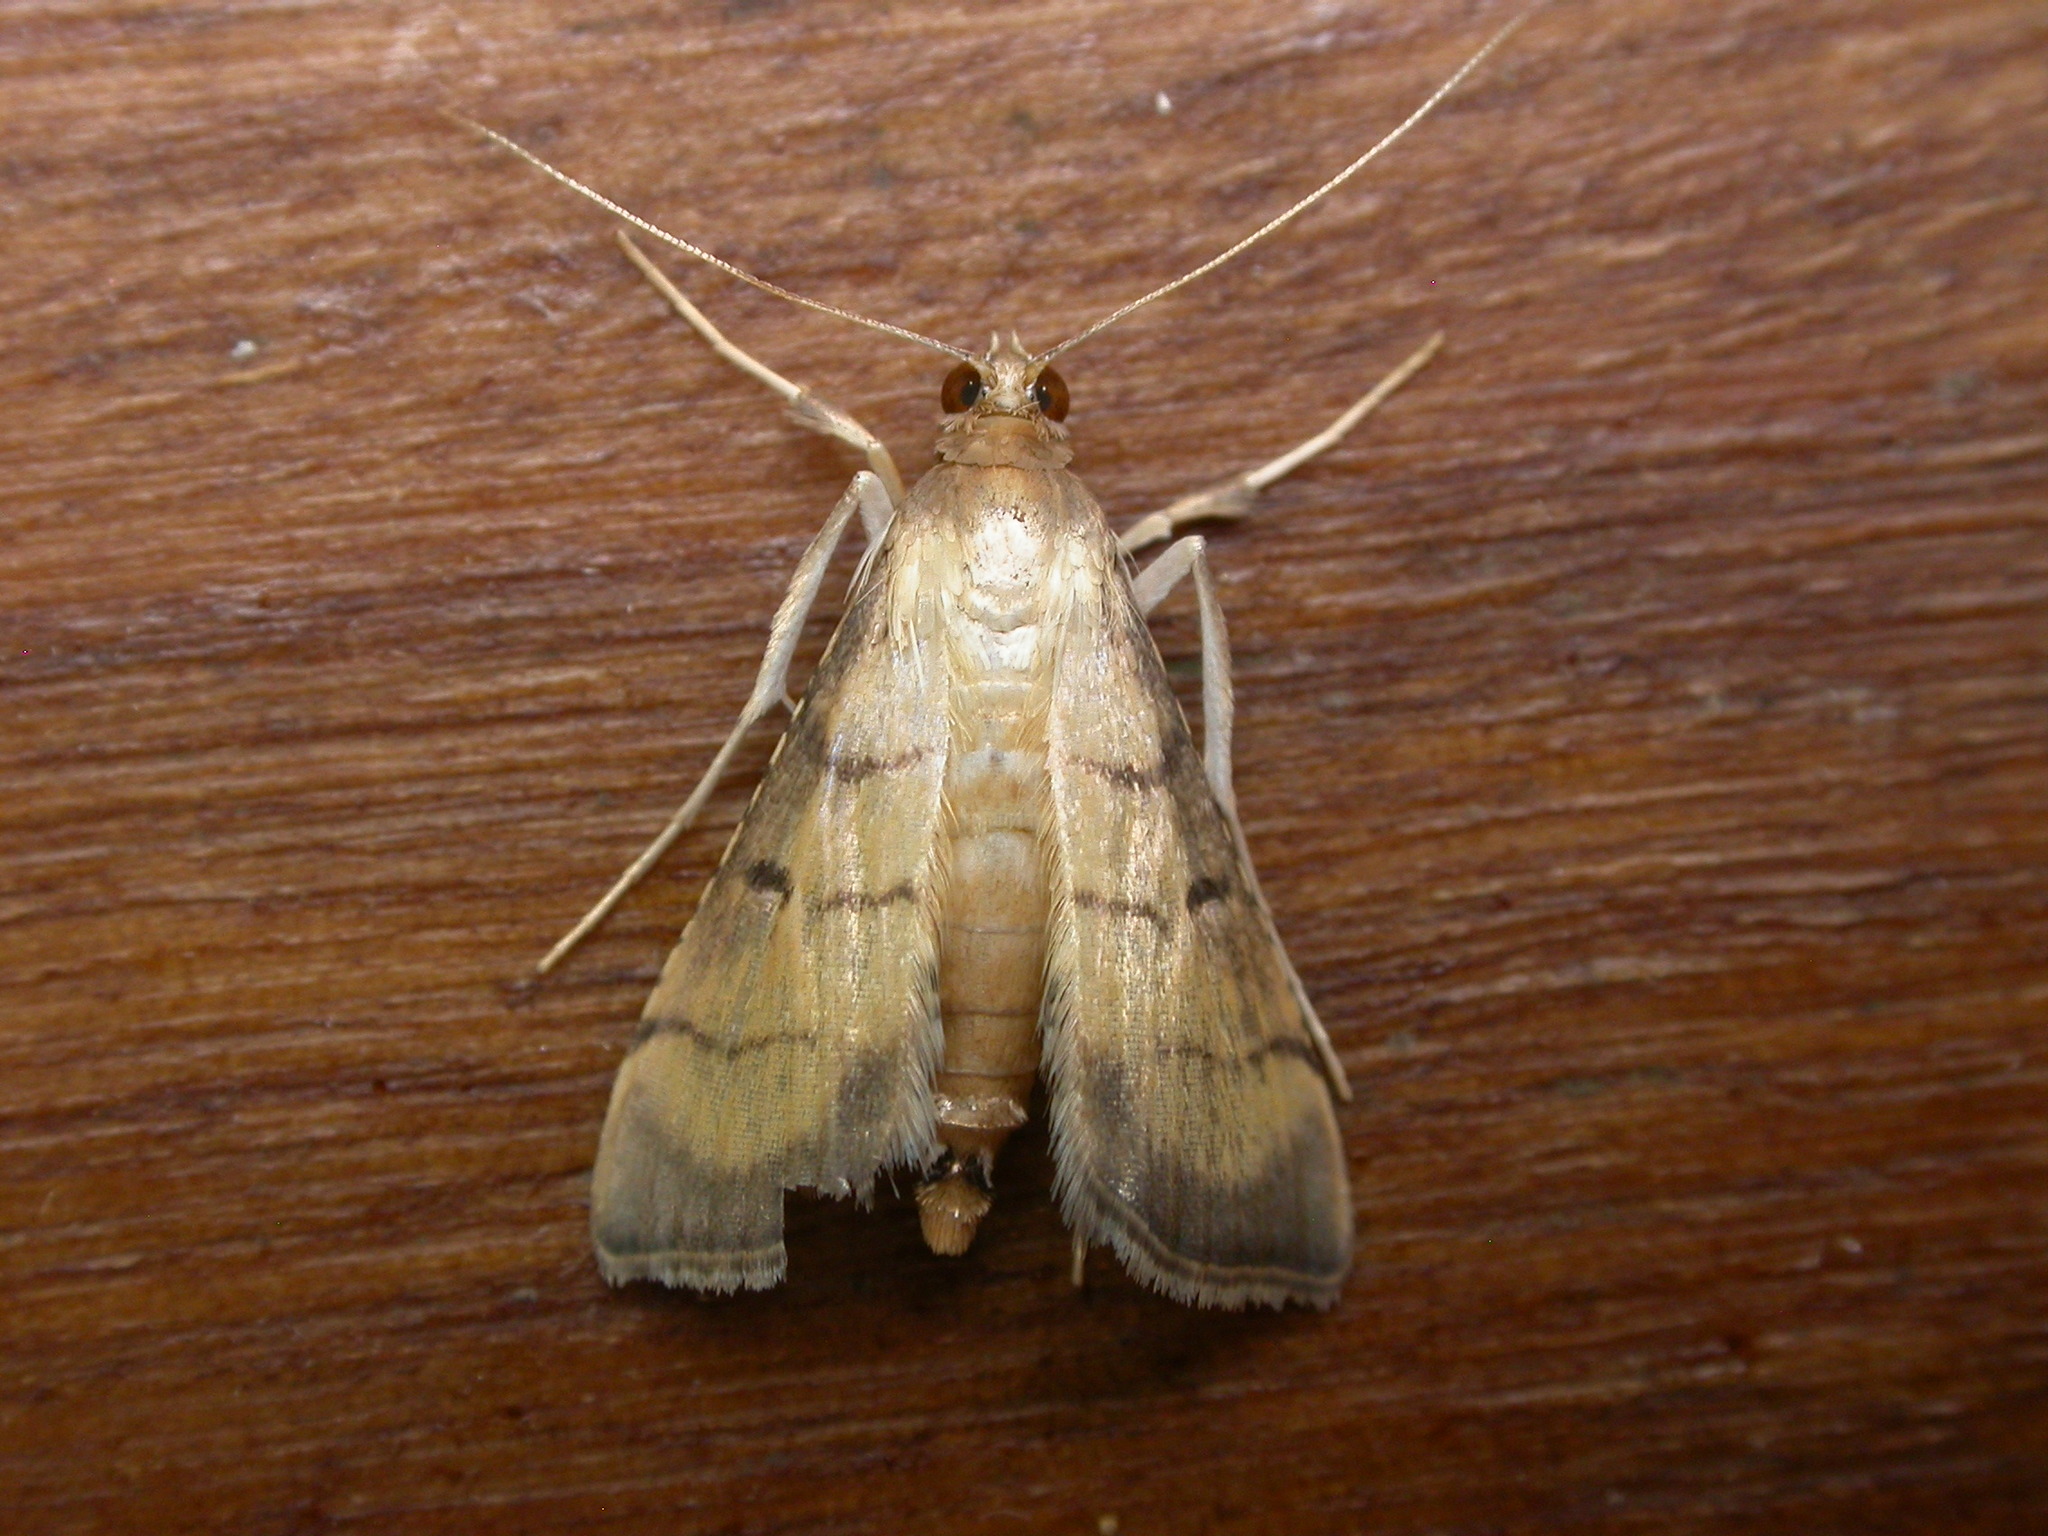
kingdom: Animalia
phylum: Arthropoda
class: Insecta
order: Lepidoptera
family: Crambidae
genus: Cnaphalocrocis
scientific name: Cnaphalocrocis poeyalis
